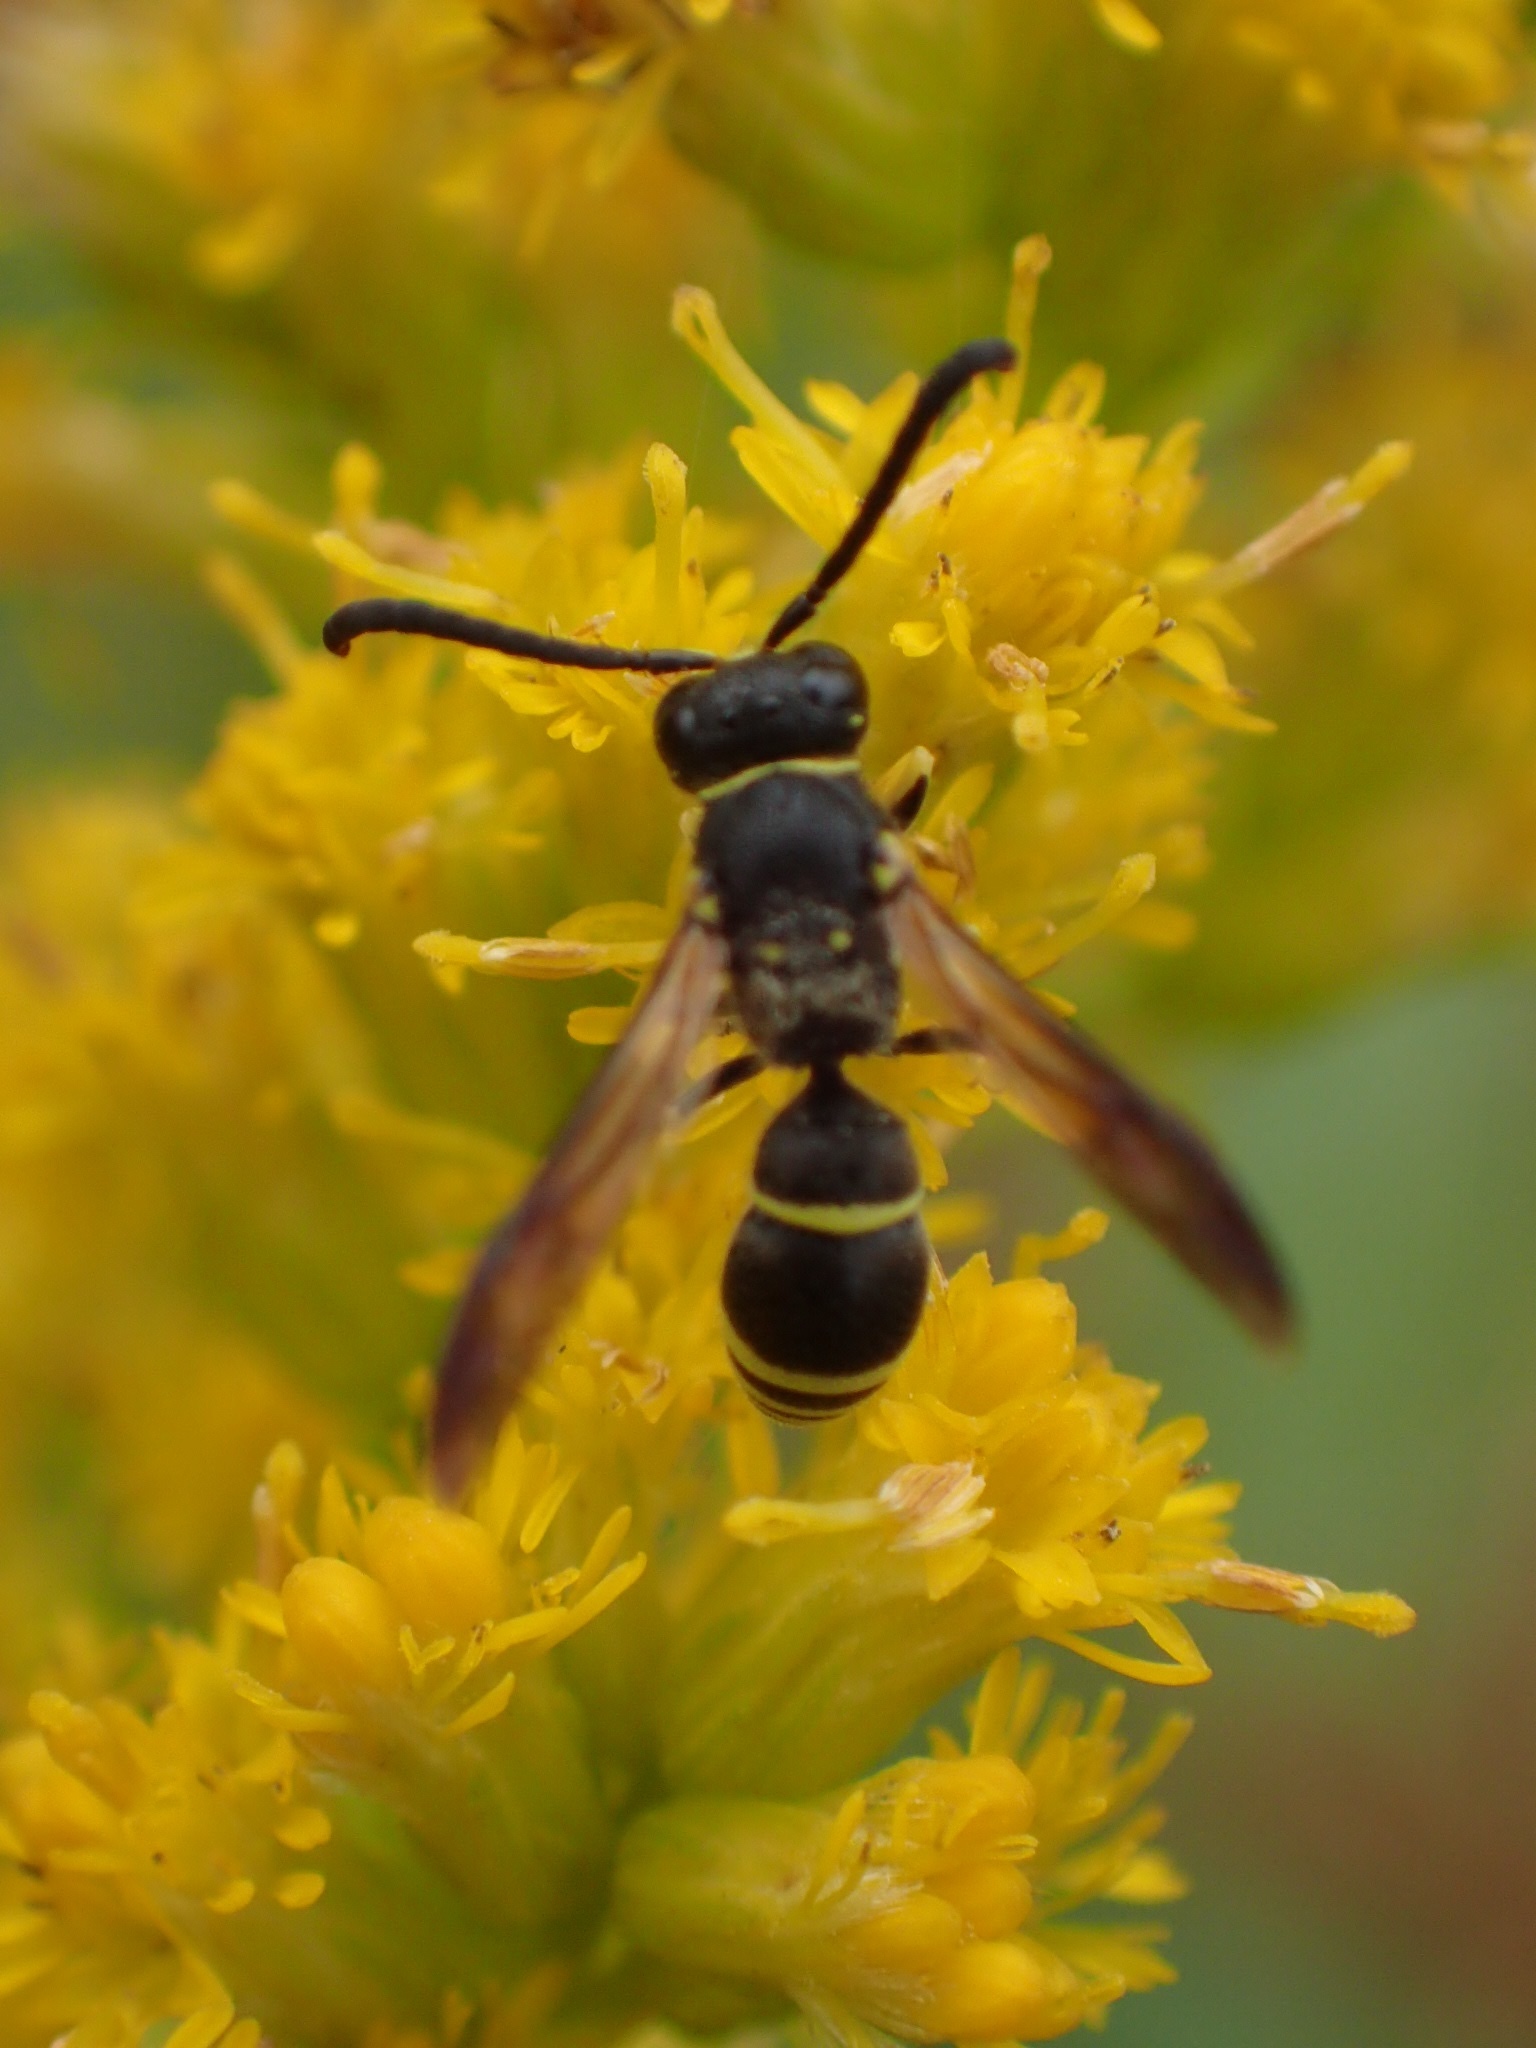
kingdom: Animalia
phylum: Arthropoda
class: Insecta
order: Hymenoptera
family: Vespidae
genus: Ancistrocerus
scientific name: Ancistrocerus
